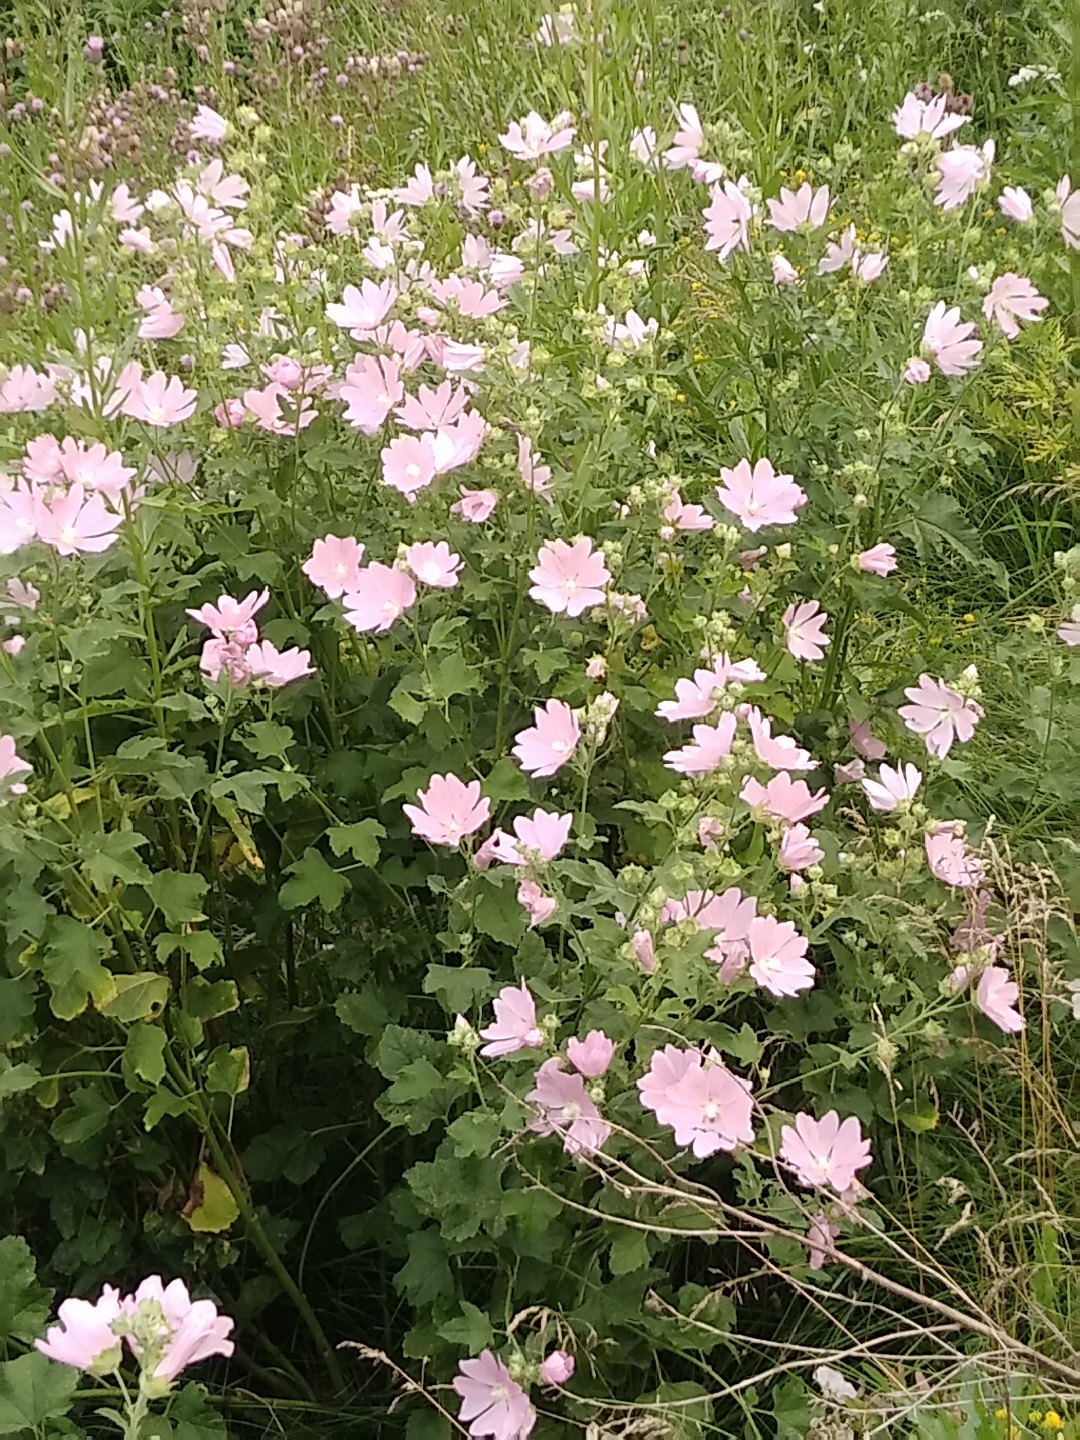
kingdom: Plantae
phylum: Tracheophyta
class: Magnoliopsida
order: Malvales
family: Malvaceae
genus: Malva
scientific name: Malva thuringiaca
